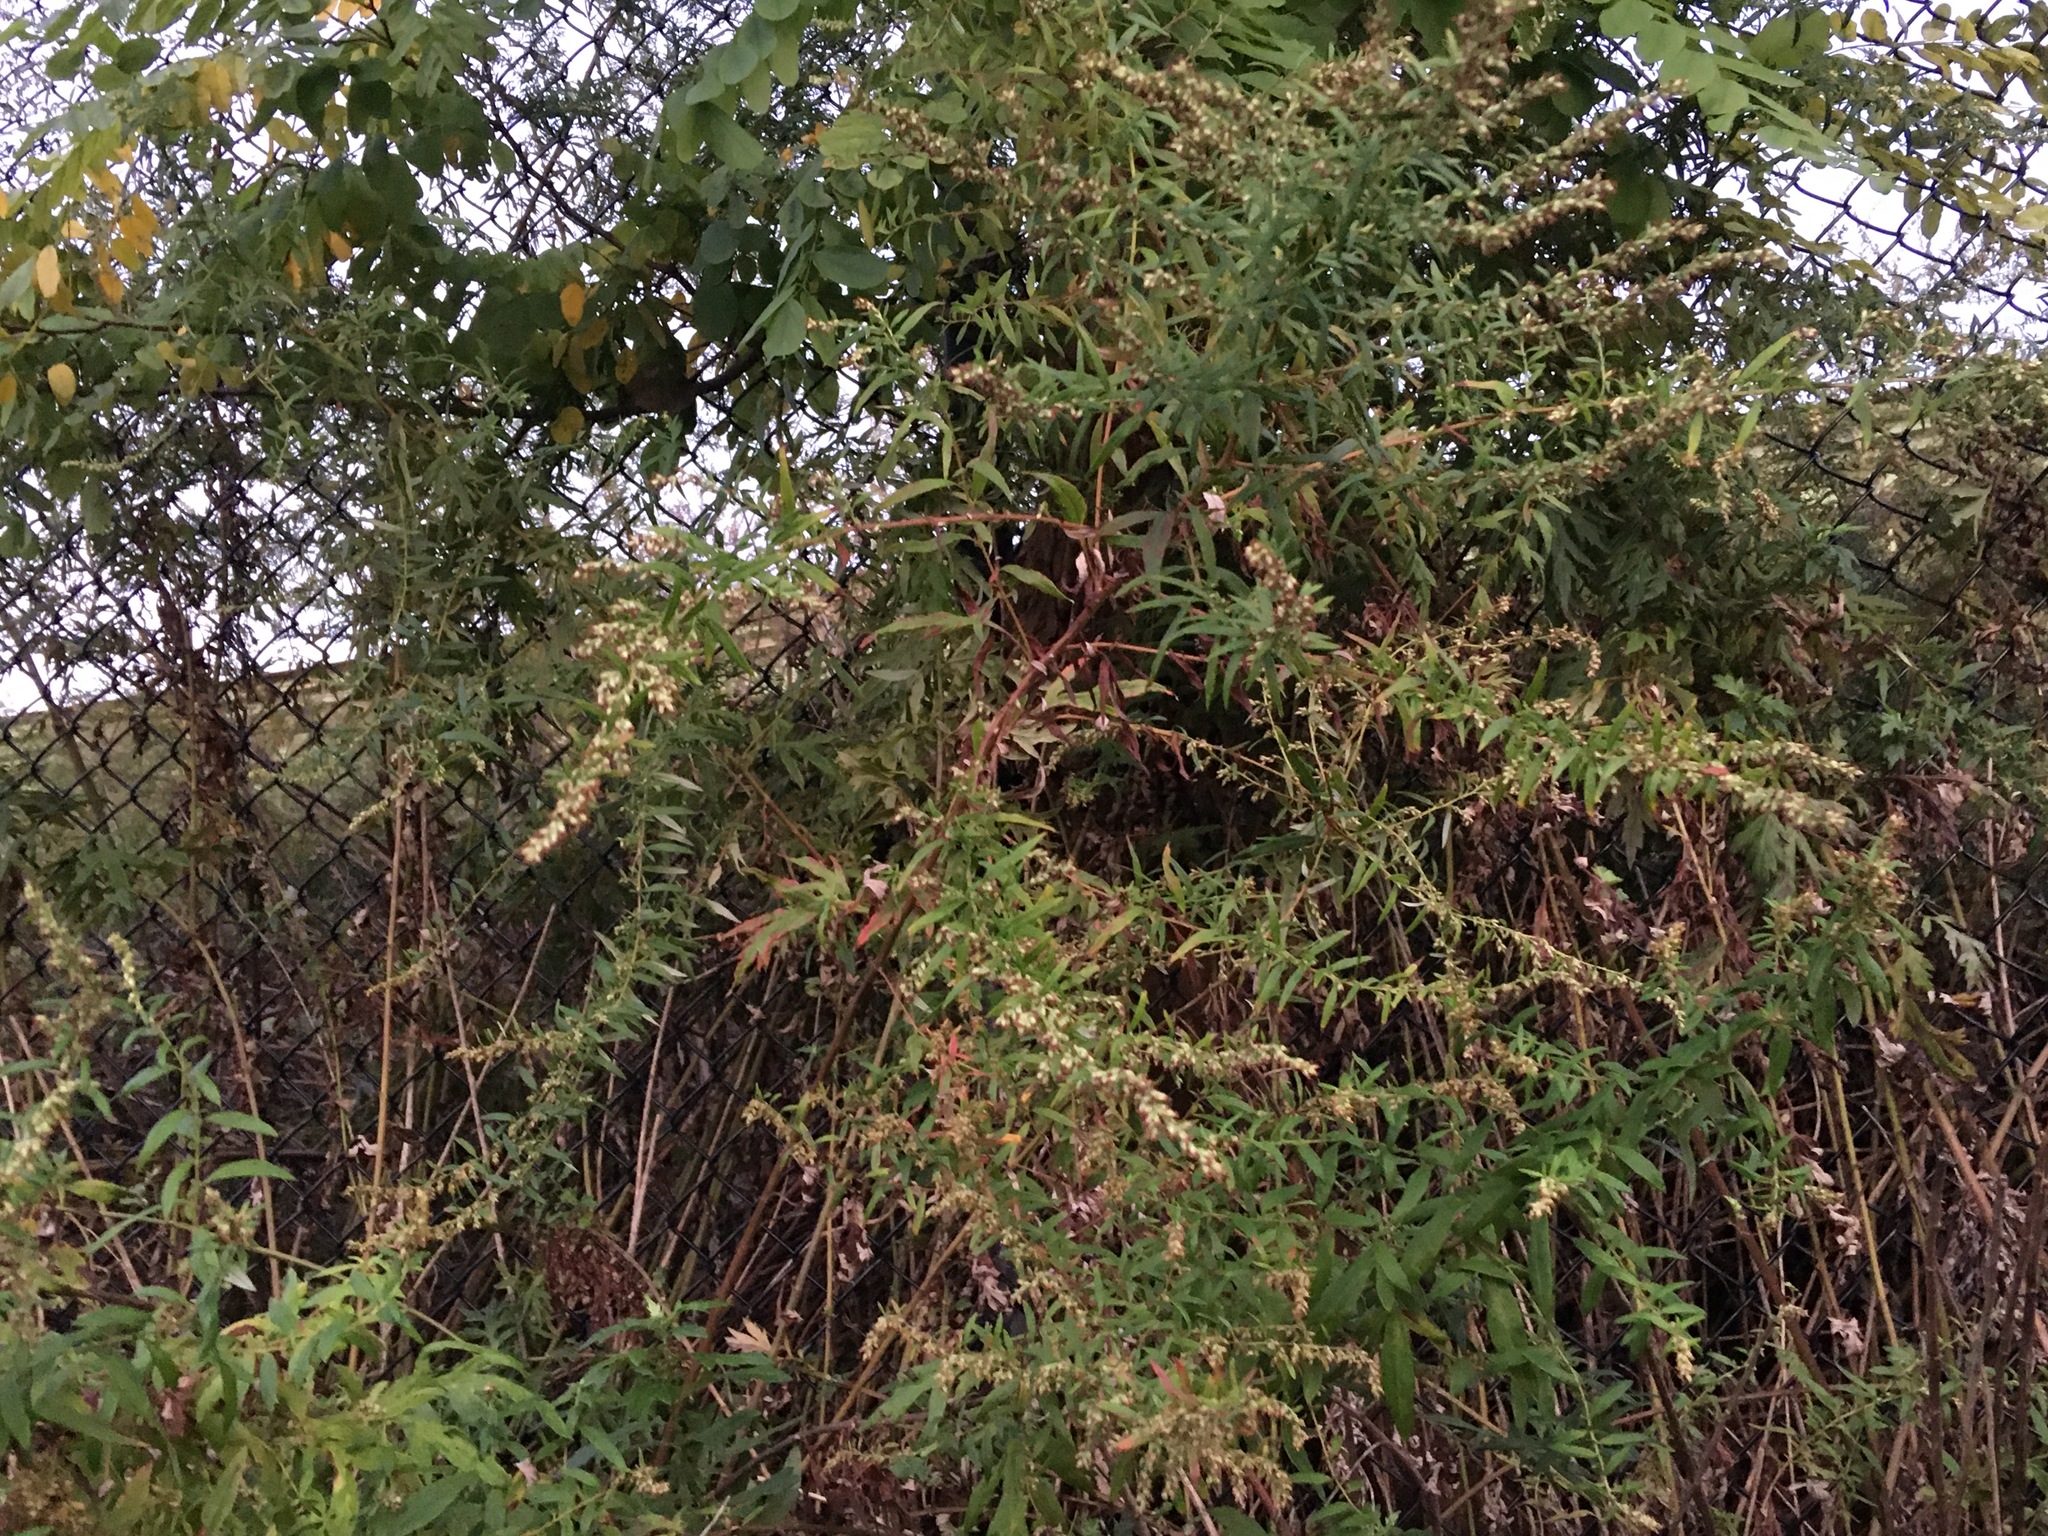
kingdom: Plantae
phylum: Tracheophyta
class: Magnoliopsida
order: Asterales
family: Asteraceae
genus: Artemisia
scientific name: Artemisia vulgaris
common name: Mugwort
